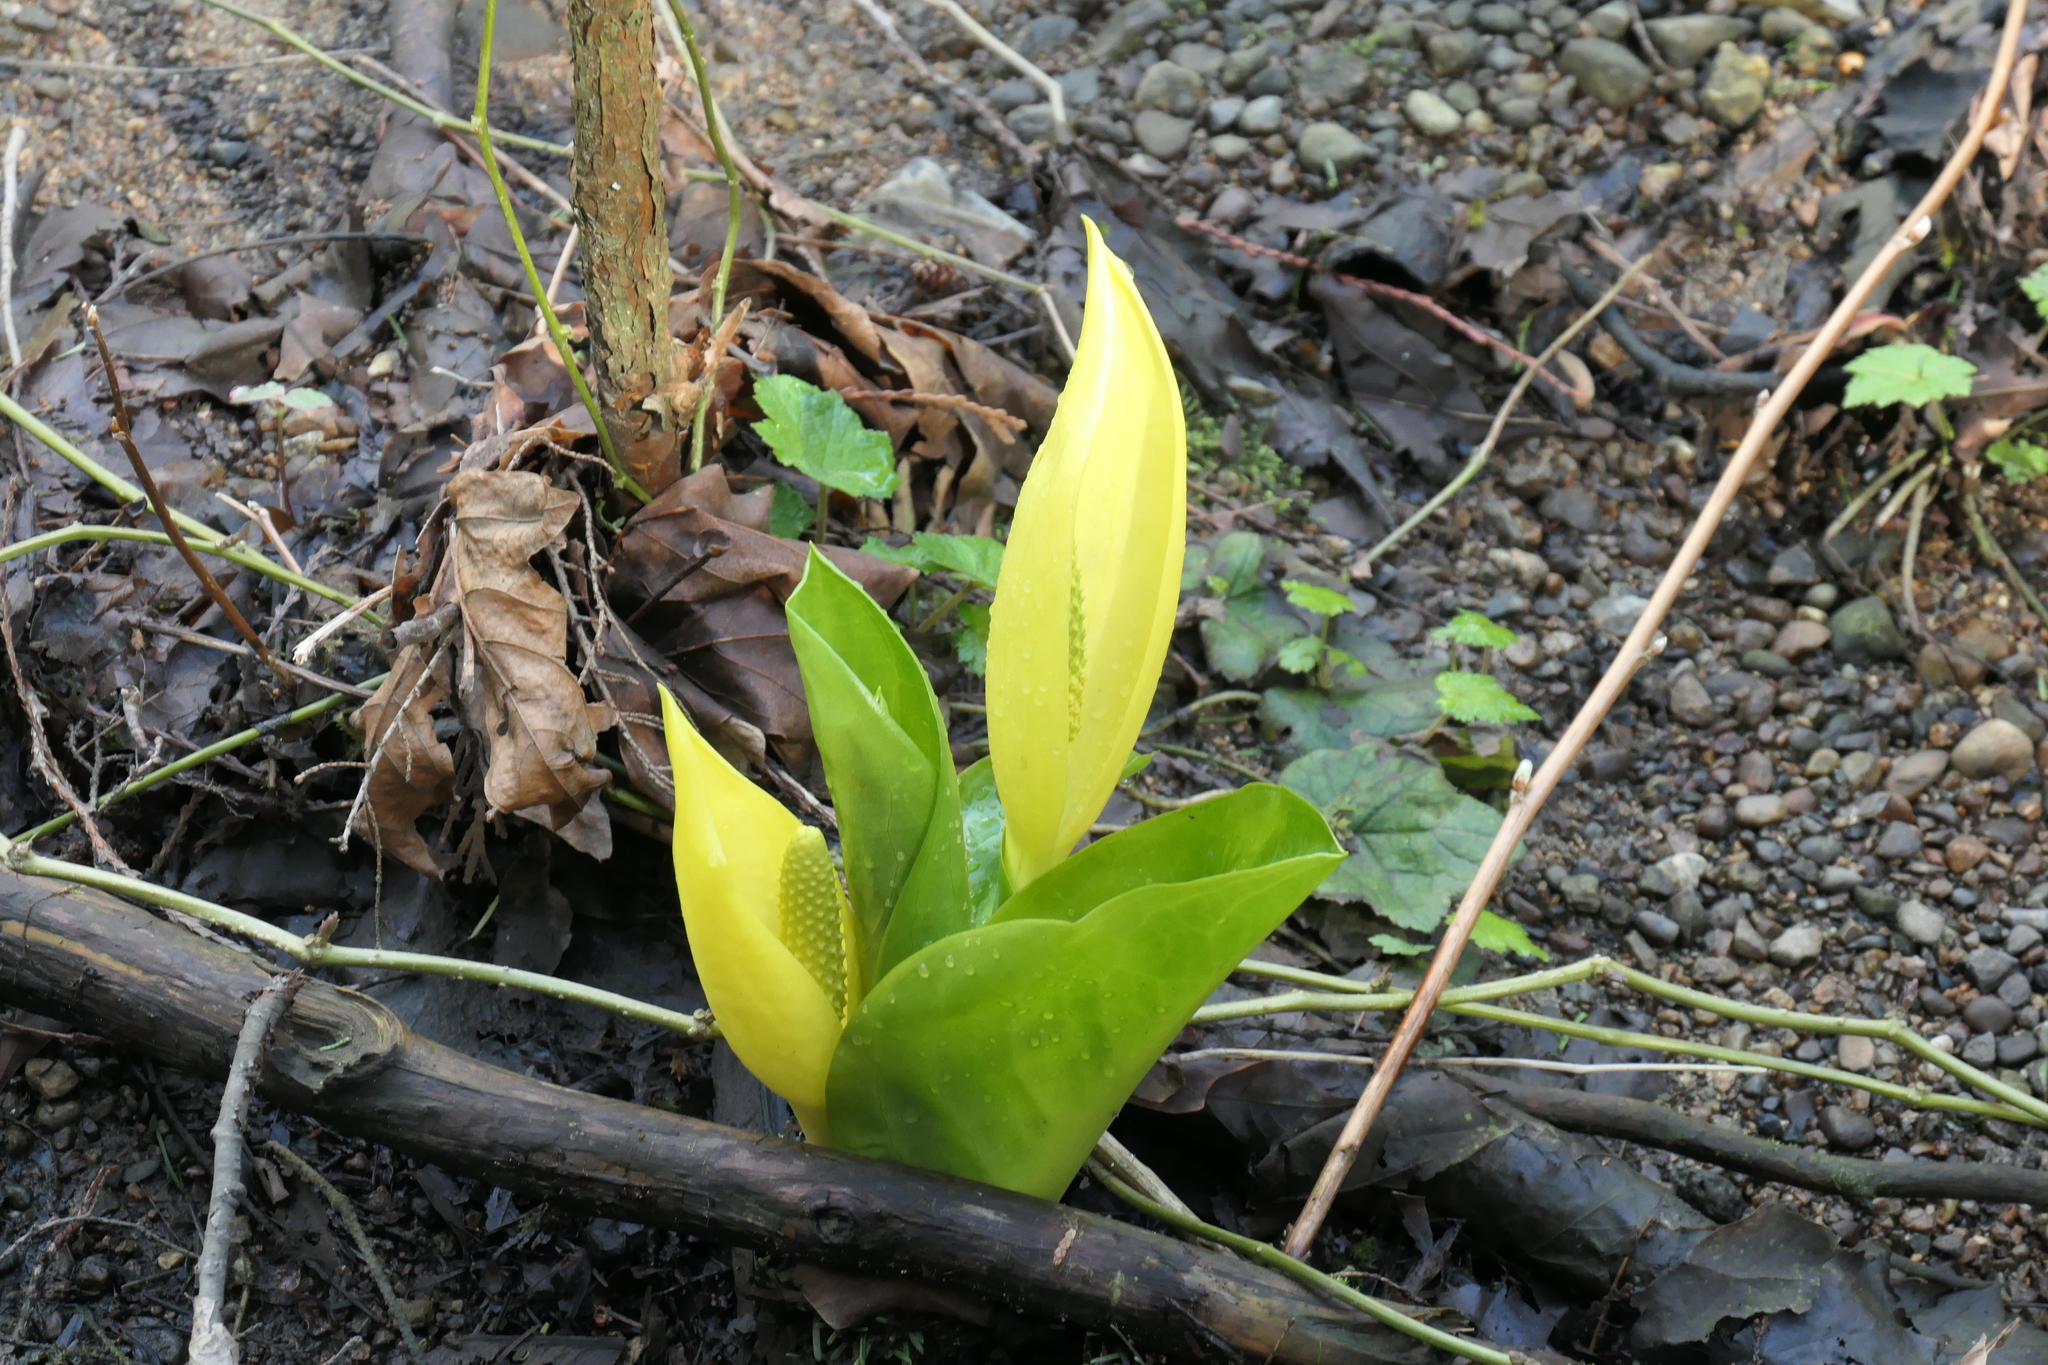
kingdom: Plantae
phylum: Tracheophyta
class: Liliopsida
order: Alismatales
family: Araceae
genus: Lysichiton
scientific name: Lysichiton americanus
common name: American skunk cabbage
